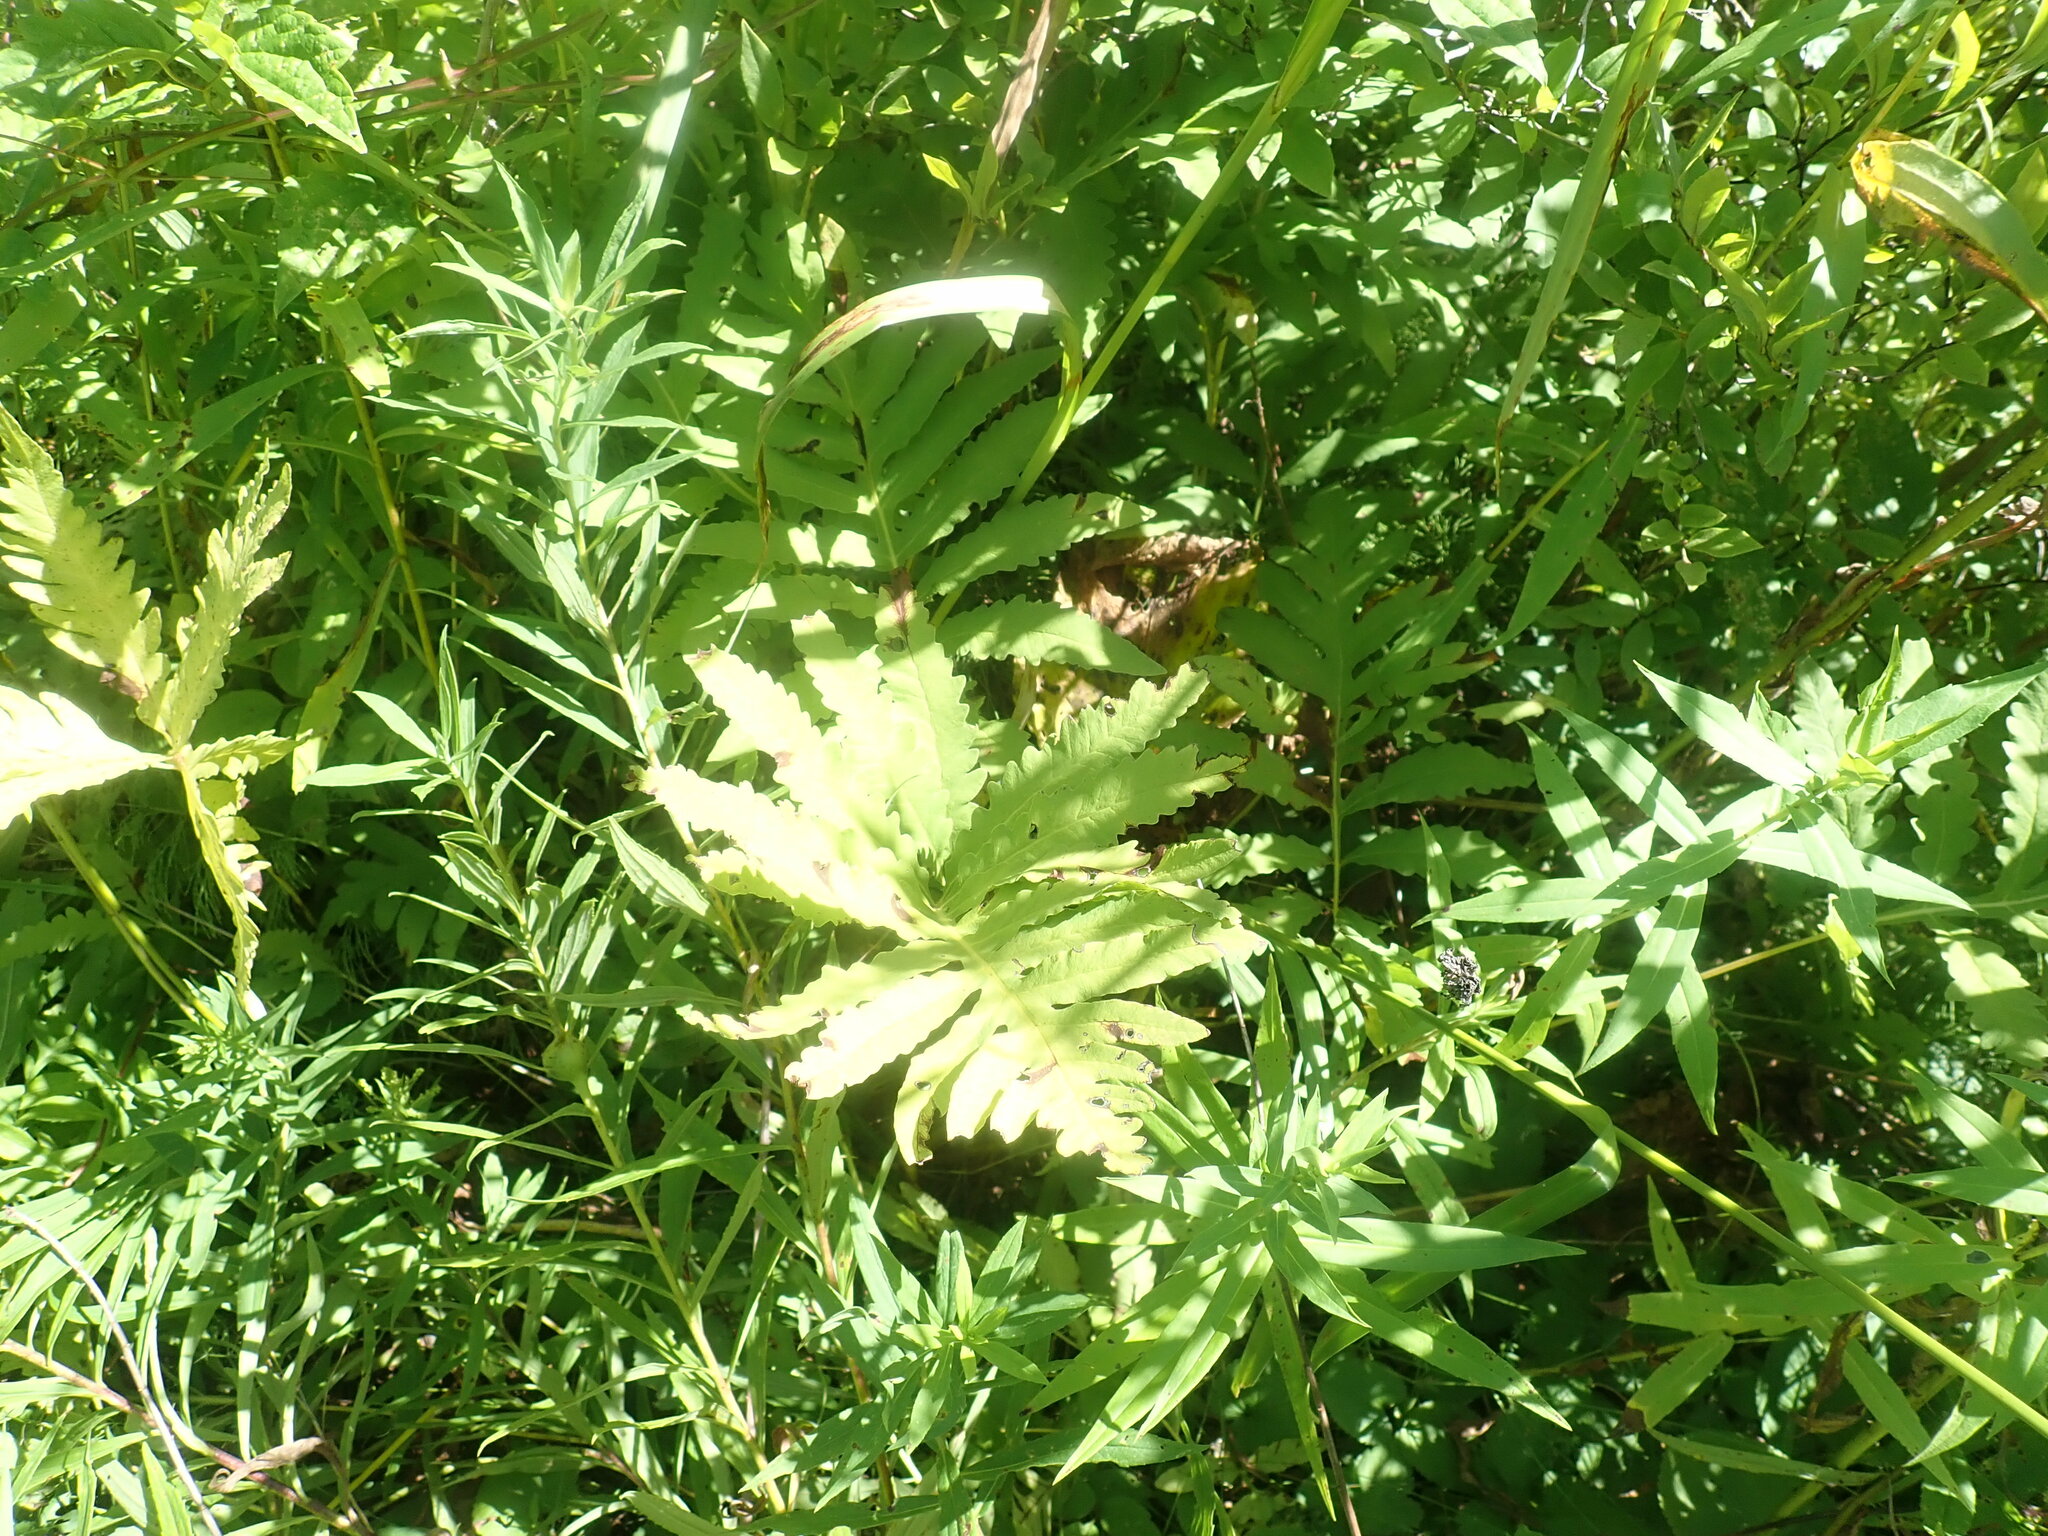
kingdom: Plantae
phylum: Tracheophyta
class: Polypodiopsida
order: Polypodiales
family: Onocleaceae
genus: Onoclea
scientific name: Onoclea sensibilis
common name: Sensitive fern
